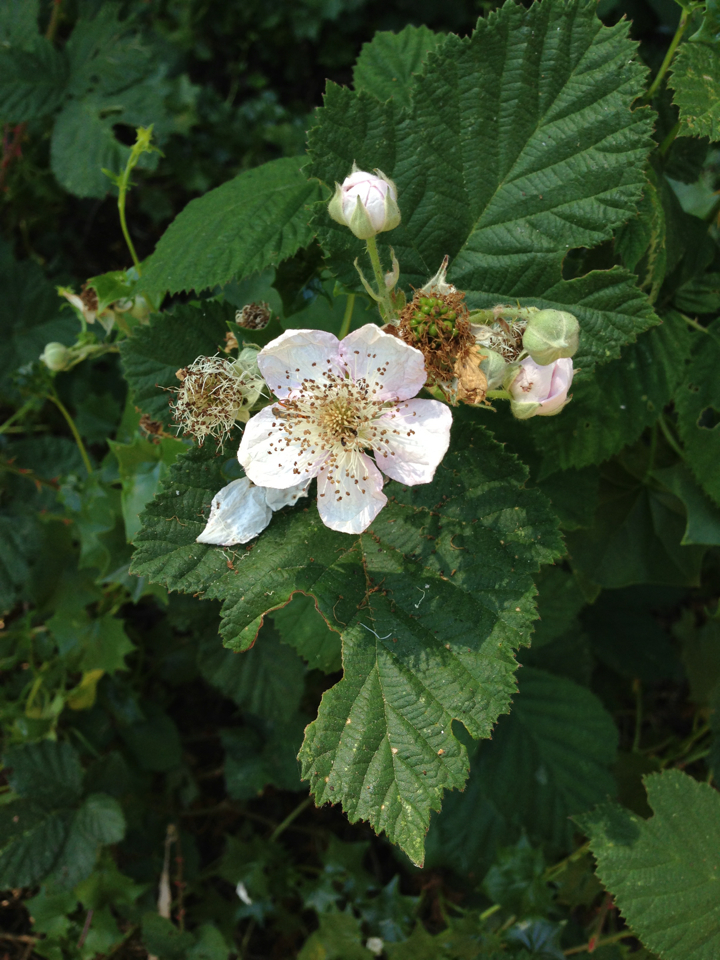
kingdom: Plantae
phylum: Tracheophyta
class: Magnoliopsida
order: Rosales
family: Rosaceae
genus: Rubus
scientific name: Rubus armeniacus
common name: Himalayan blackberry
